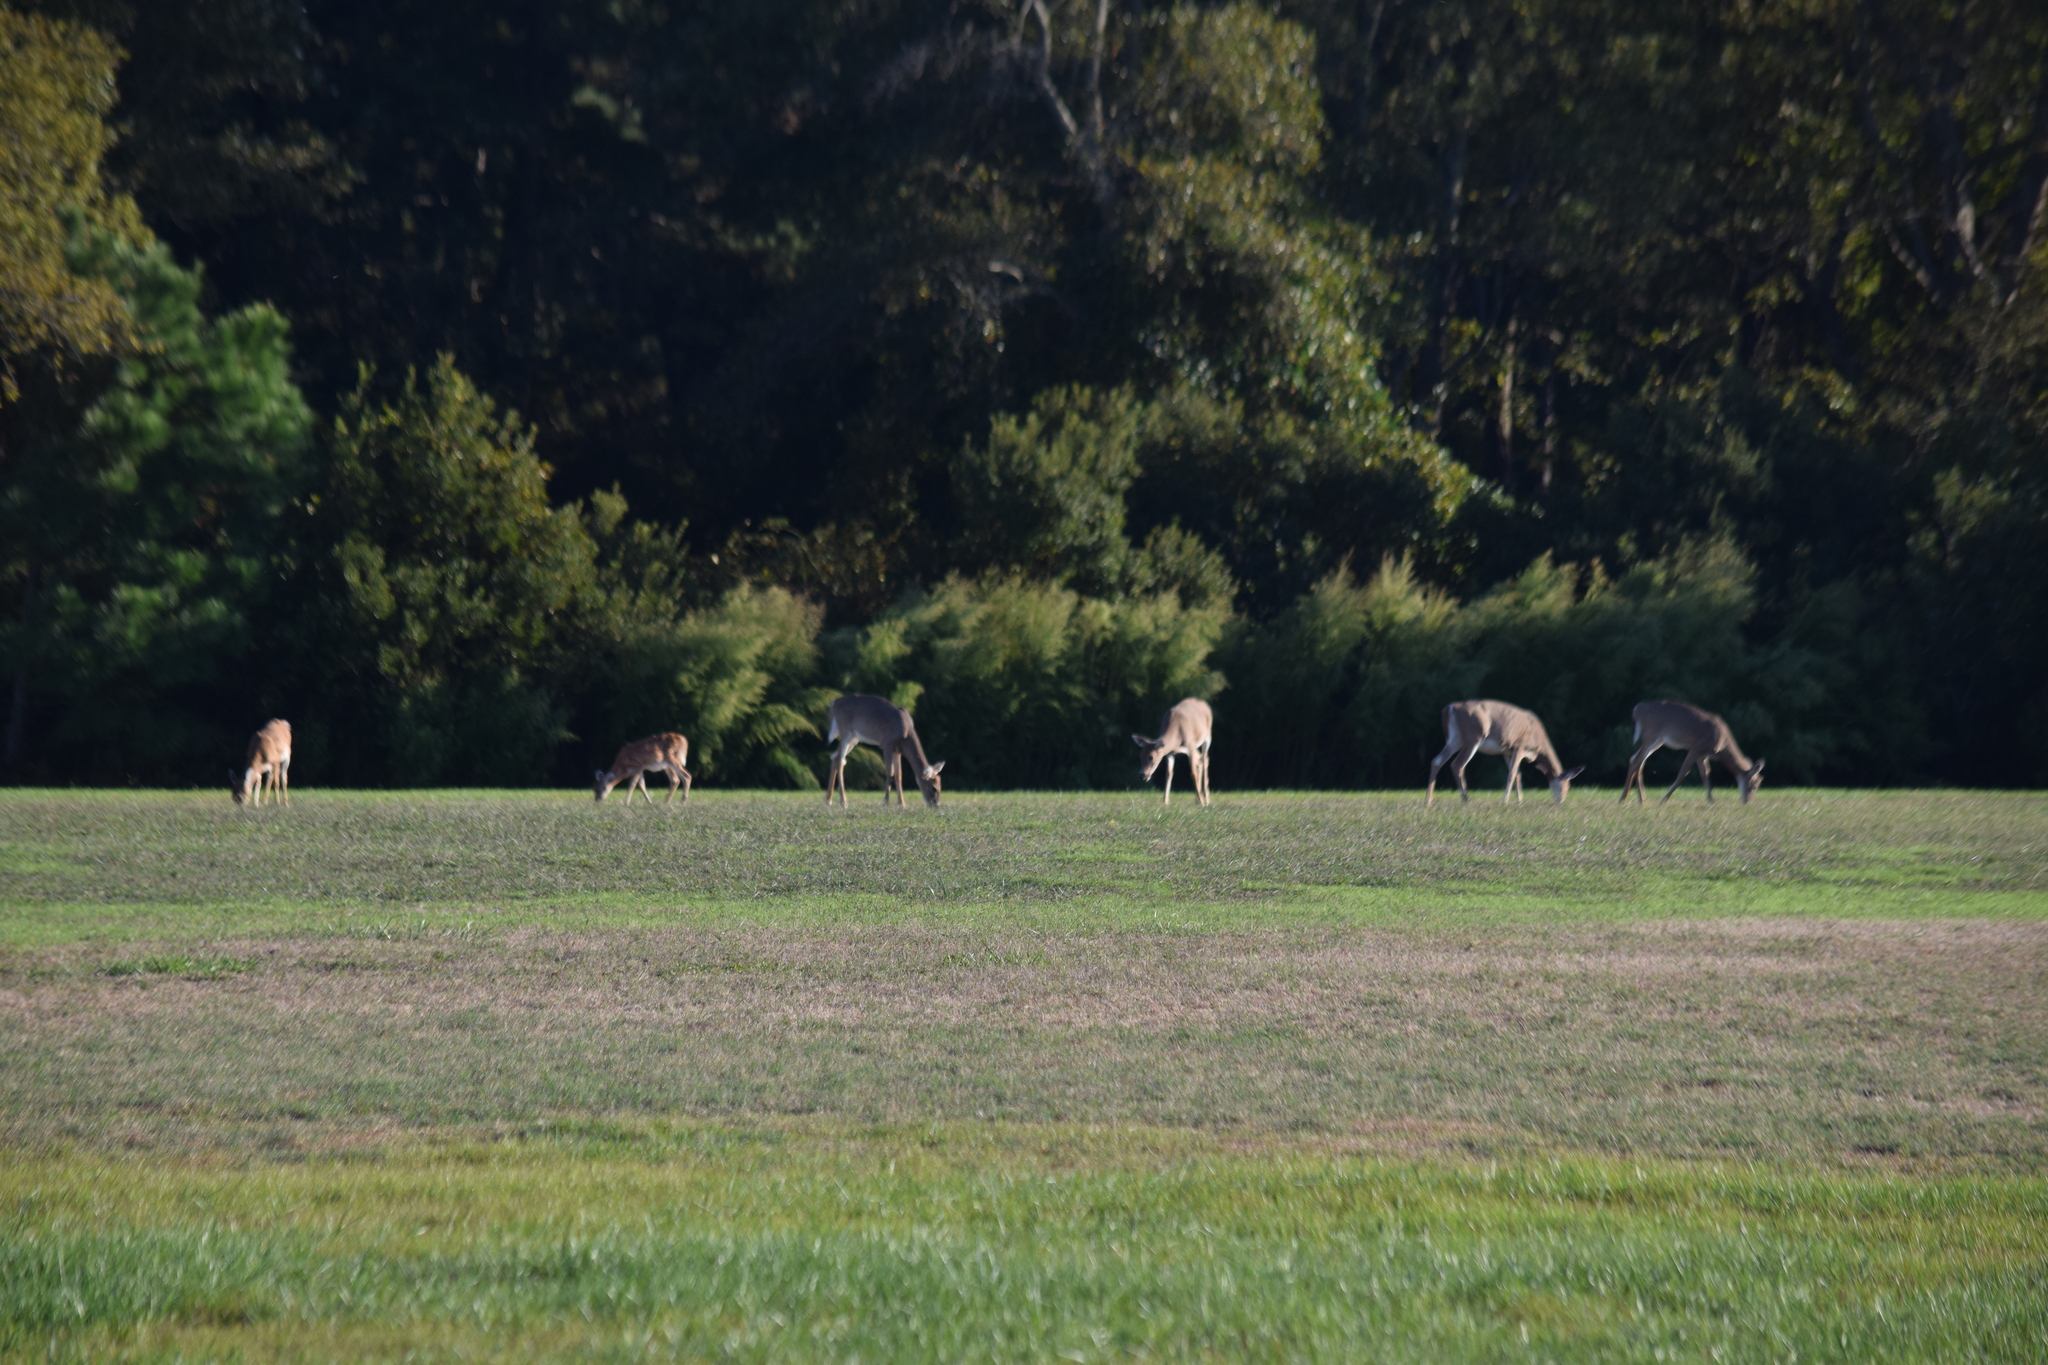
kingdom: Animalia
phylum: Chordata
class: Mammalia
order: Artiodactyla
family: Cervidae
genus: Odocoileus
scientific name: Odocoileus virginianus
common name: White-tailed deer
